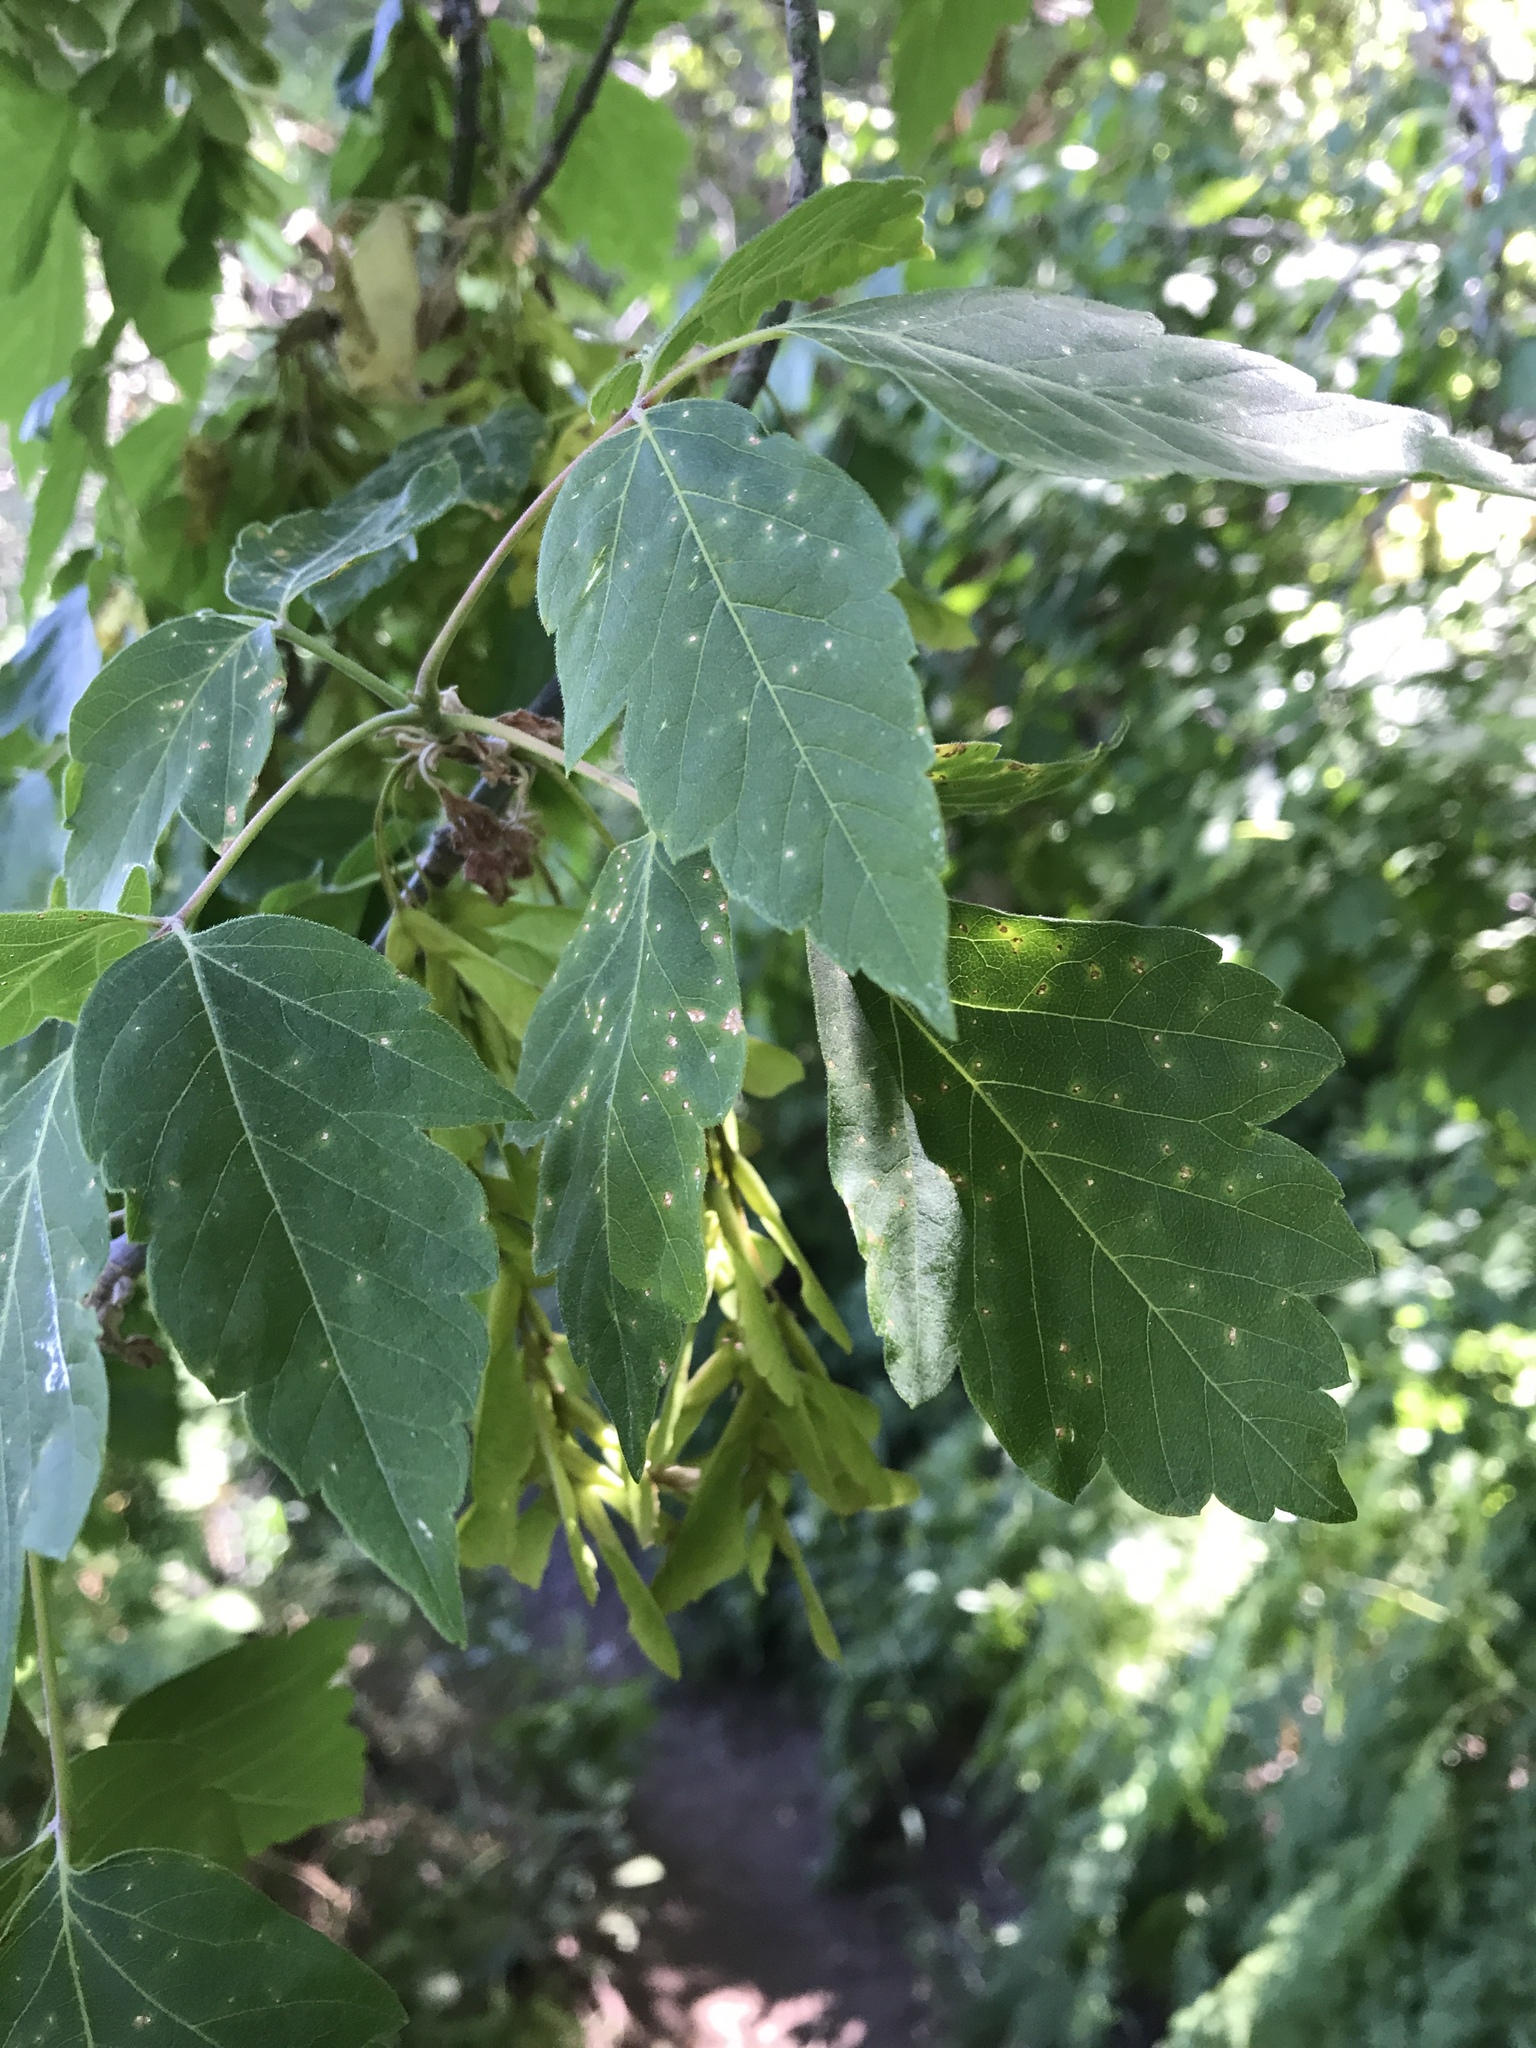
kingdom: Plantae
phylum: Tracheophyta
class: Magnoliopsida
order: Sapindales
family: Sapindaceae
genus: Acer
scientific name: Acer negundo
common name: Ashleaf maple
